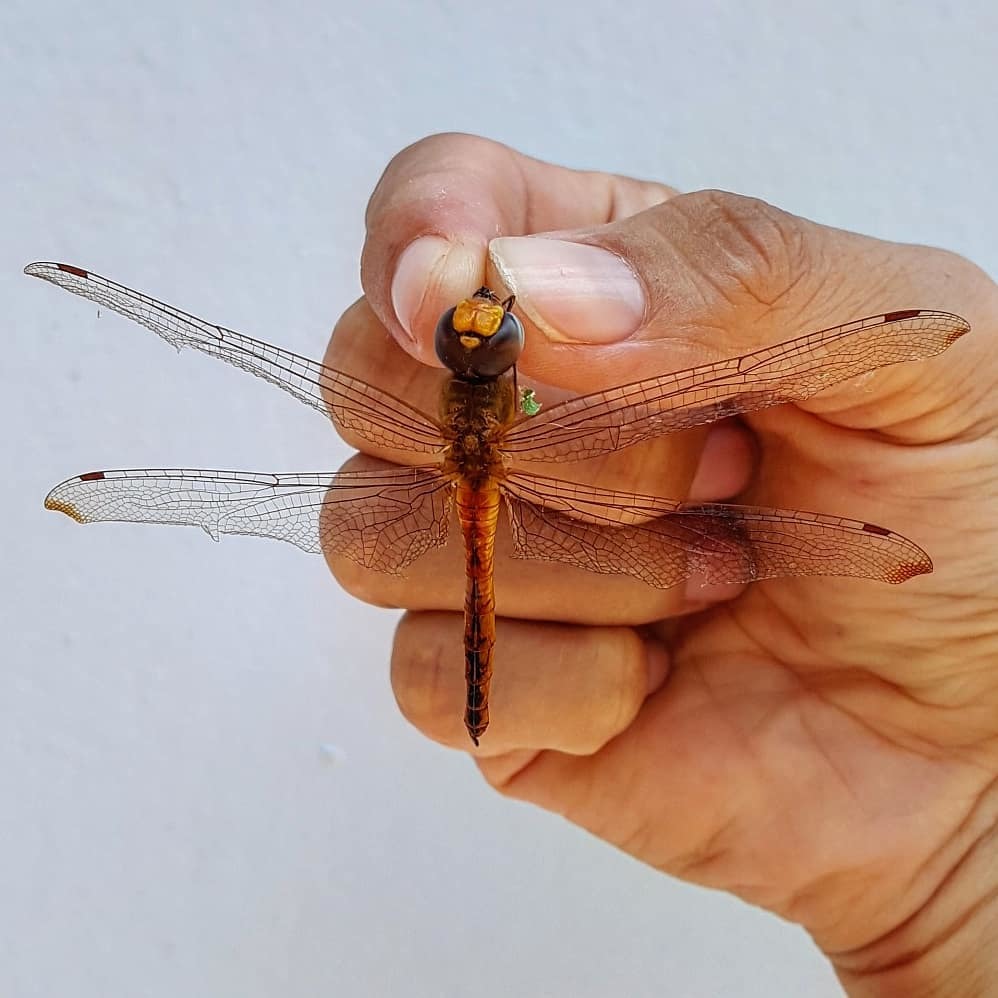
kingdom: Animalia
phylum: Arthropoda
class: Insecta
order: Odonata
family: Libellulidae
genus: Pantala
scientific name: Pantala flavescens
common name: Wandering glider
